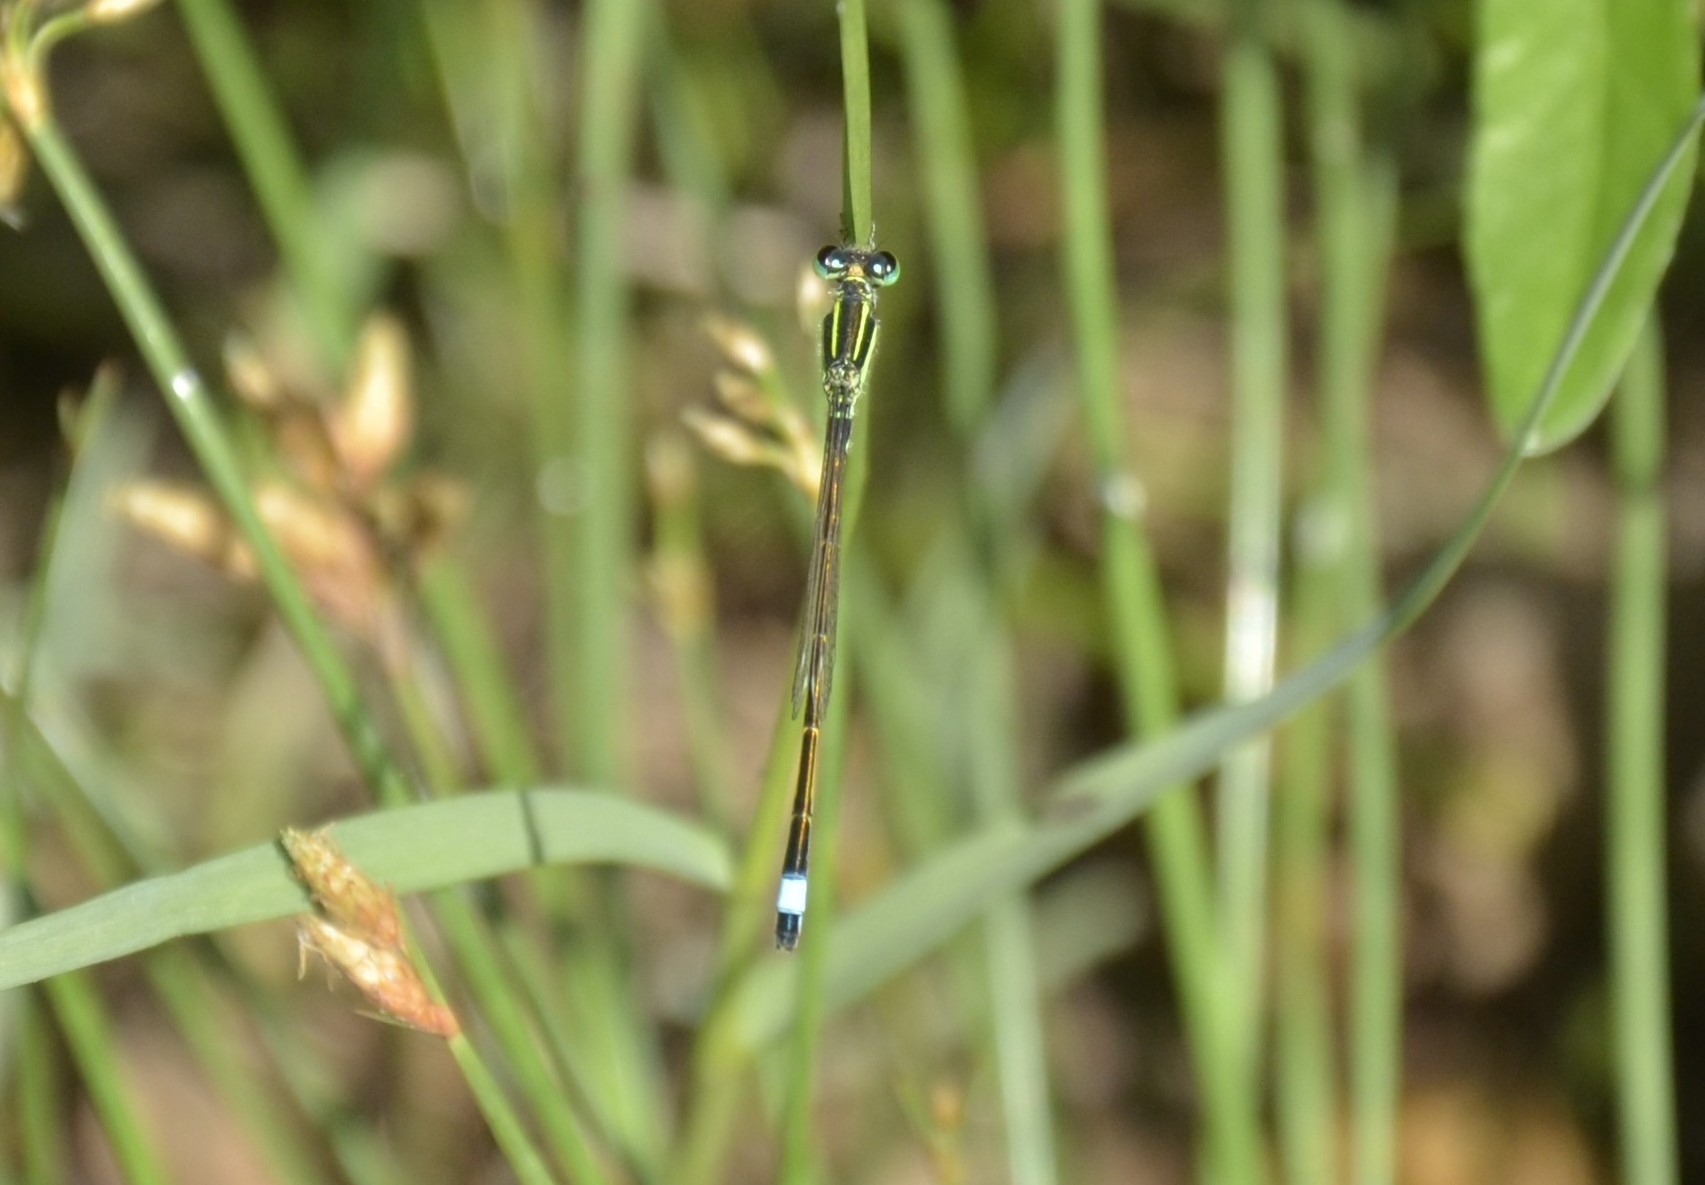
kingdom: Animalia
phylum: Arthropoda
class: Insecta
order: Odonata
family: Coenagrionidae
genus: Ischnura
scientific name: Ischnura senegalensis
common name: Tropical bluetail
